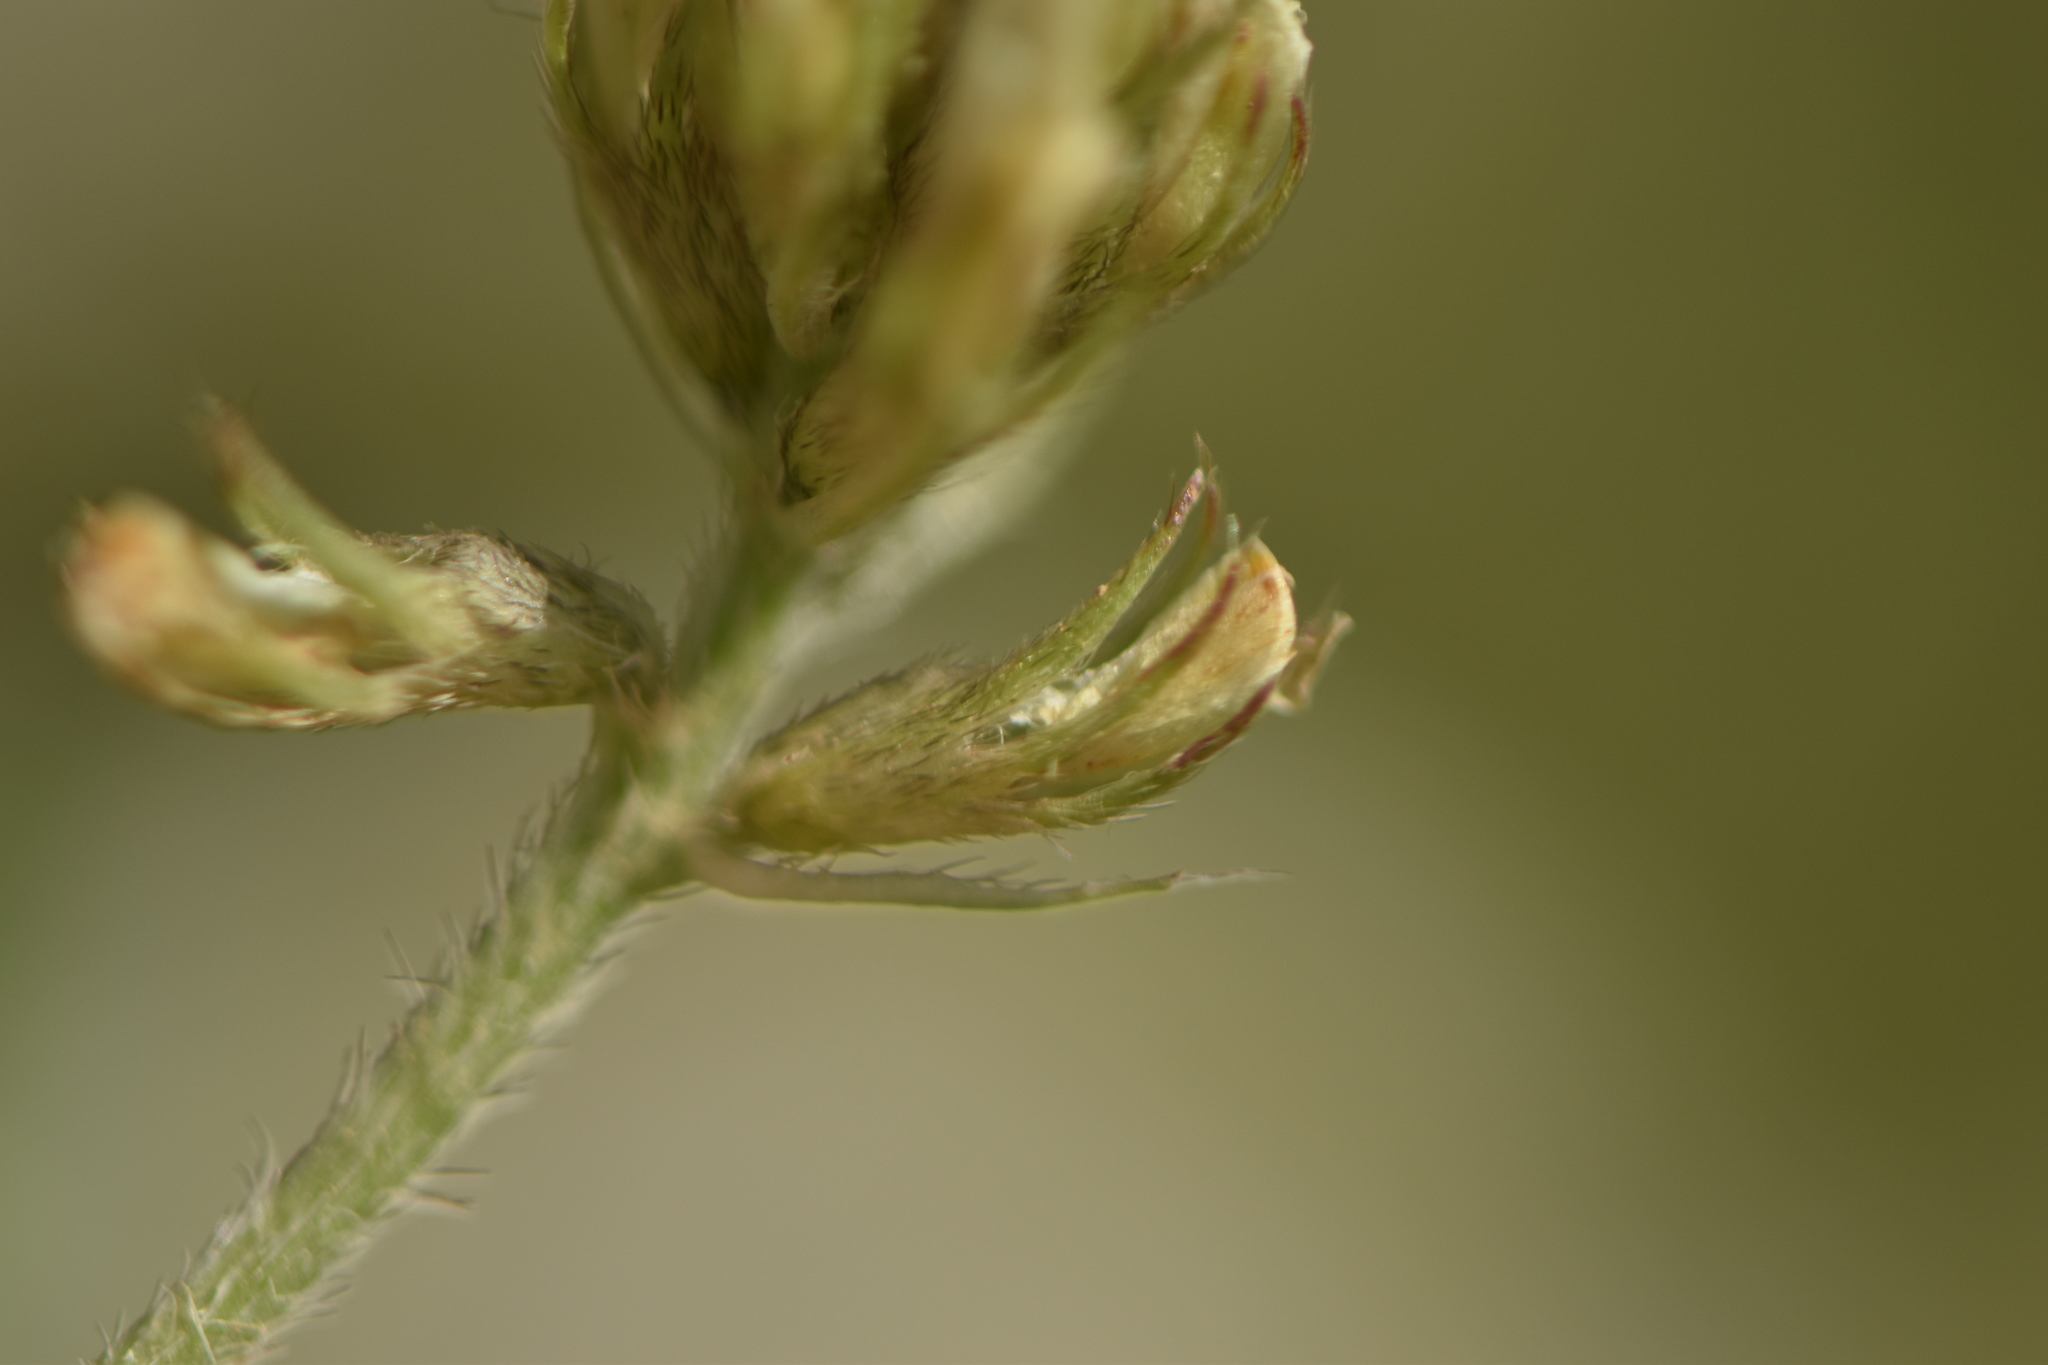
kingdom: Plantae
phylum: Tracheophyta
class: Magnoliopsida
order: Fabales
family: Fabaceae
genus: Astragalus
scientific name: Astragalus hamosus
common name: European milkvetch
